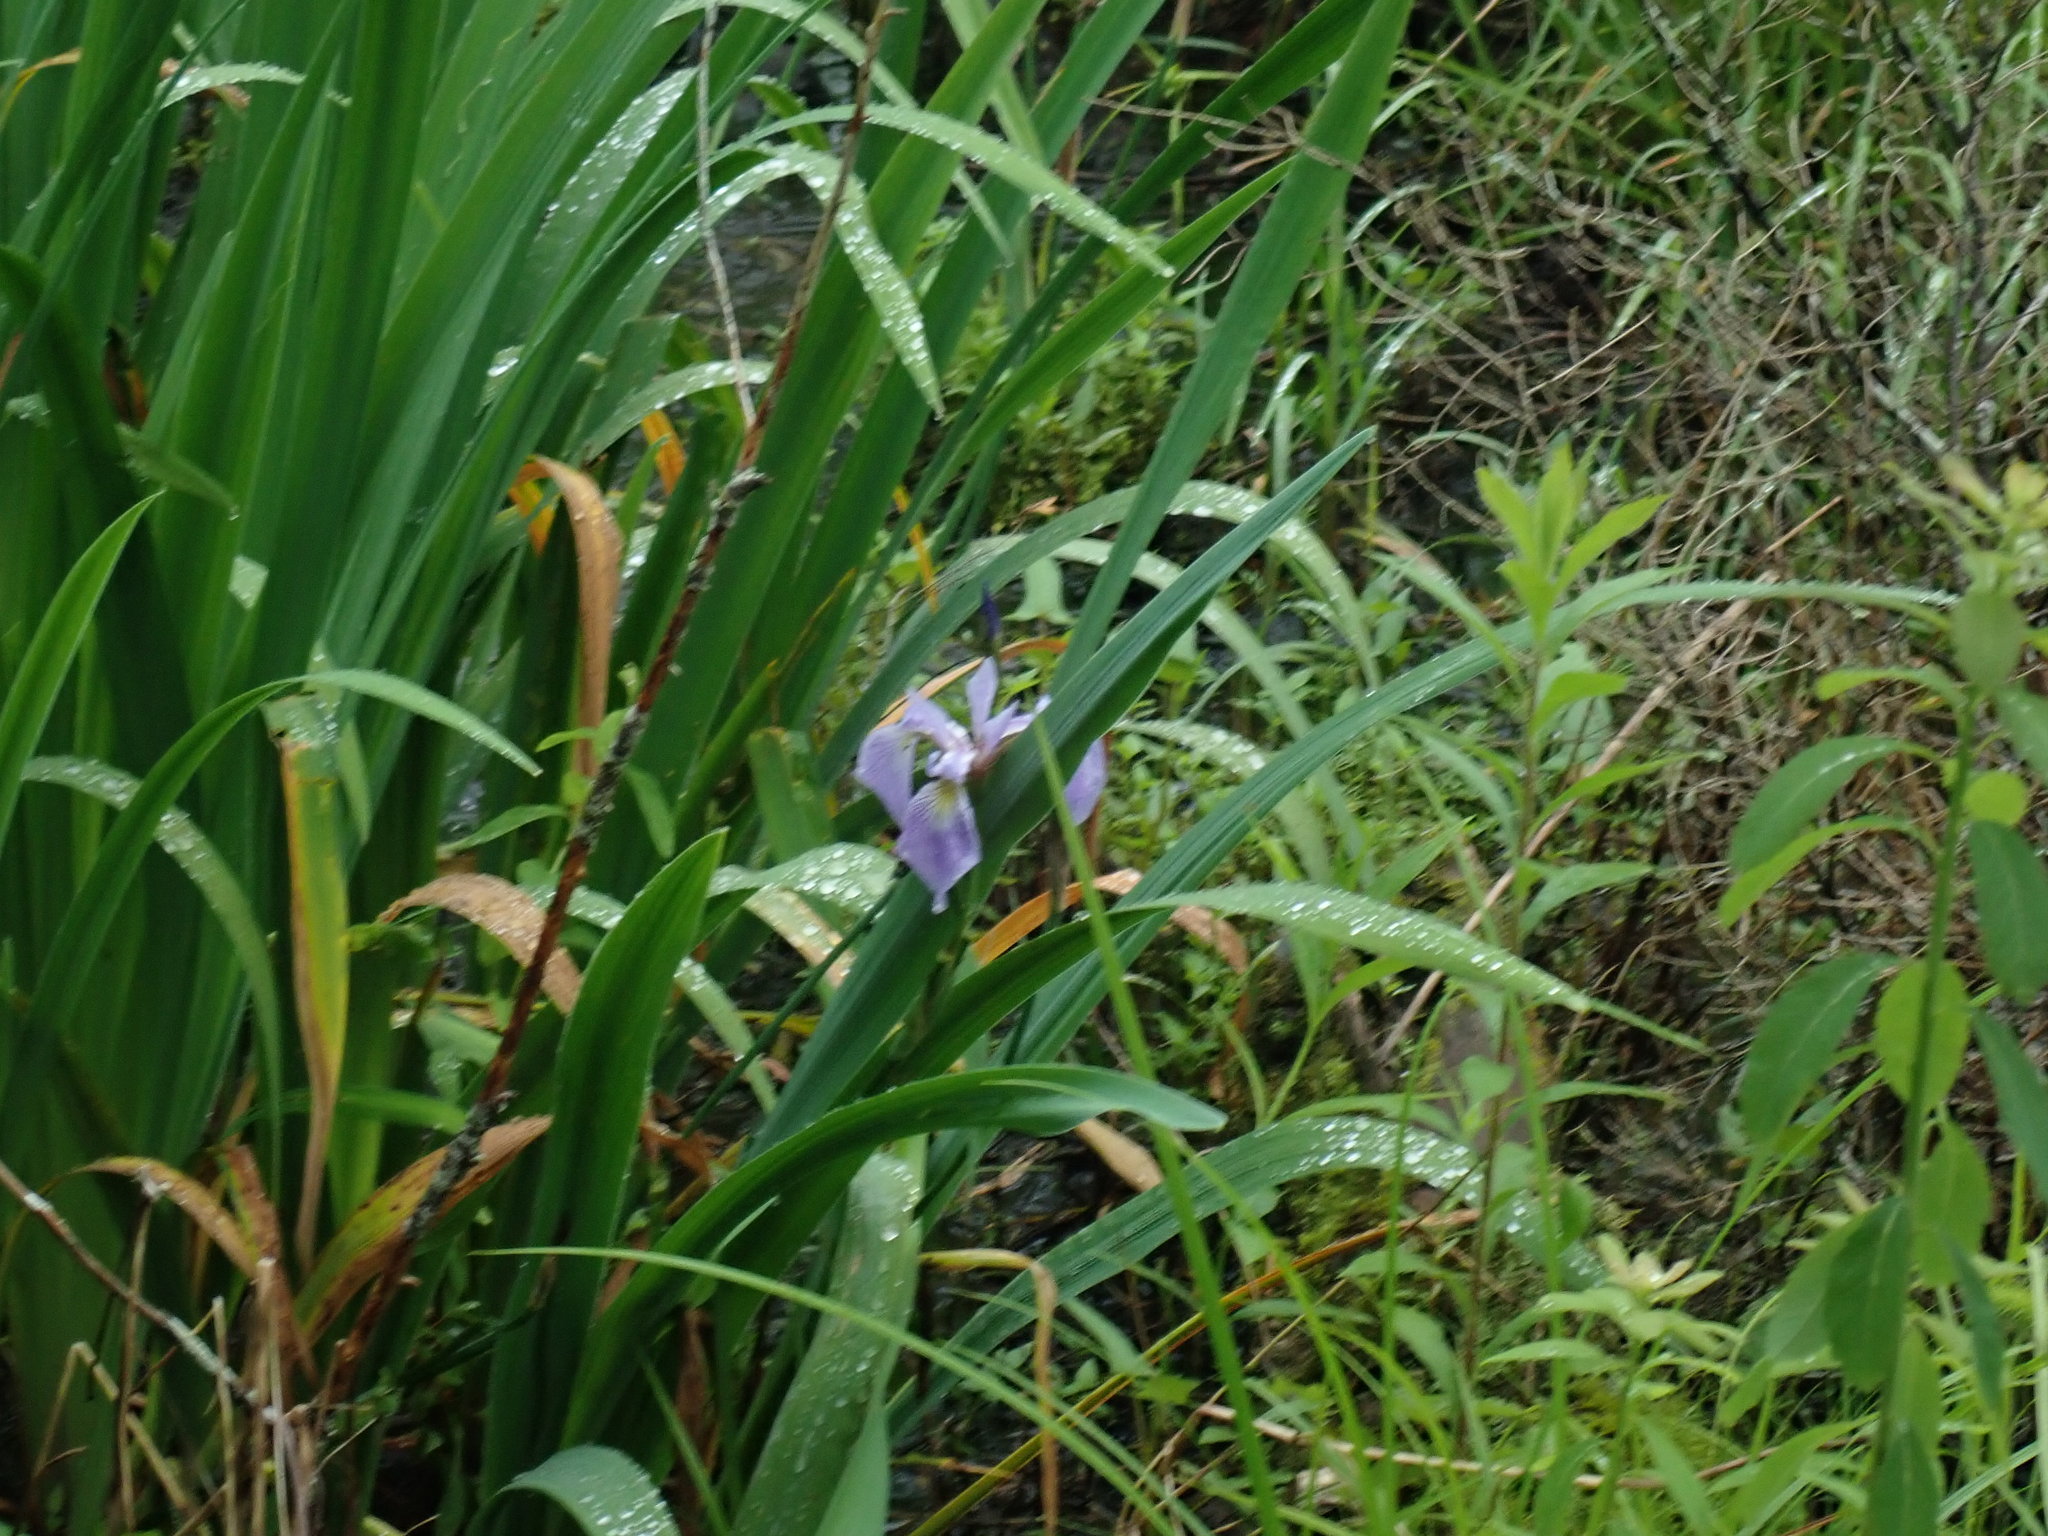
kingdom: Plantae
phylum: Tracheophyta
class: Liliopsida
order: Asparagales
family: Iridaceae
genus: Iris
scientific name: Iris versicolor
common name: Purple iris
